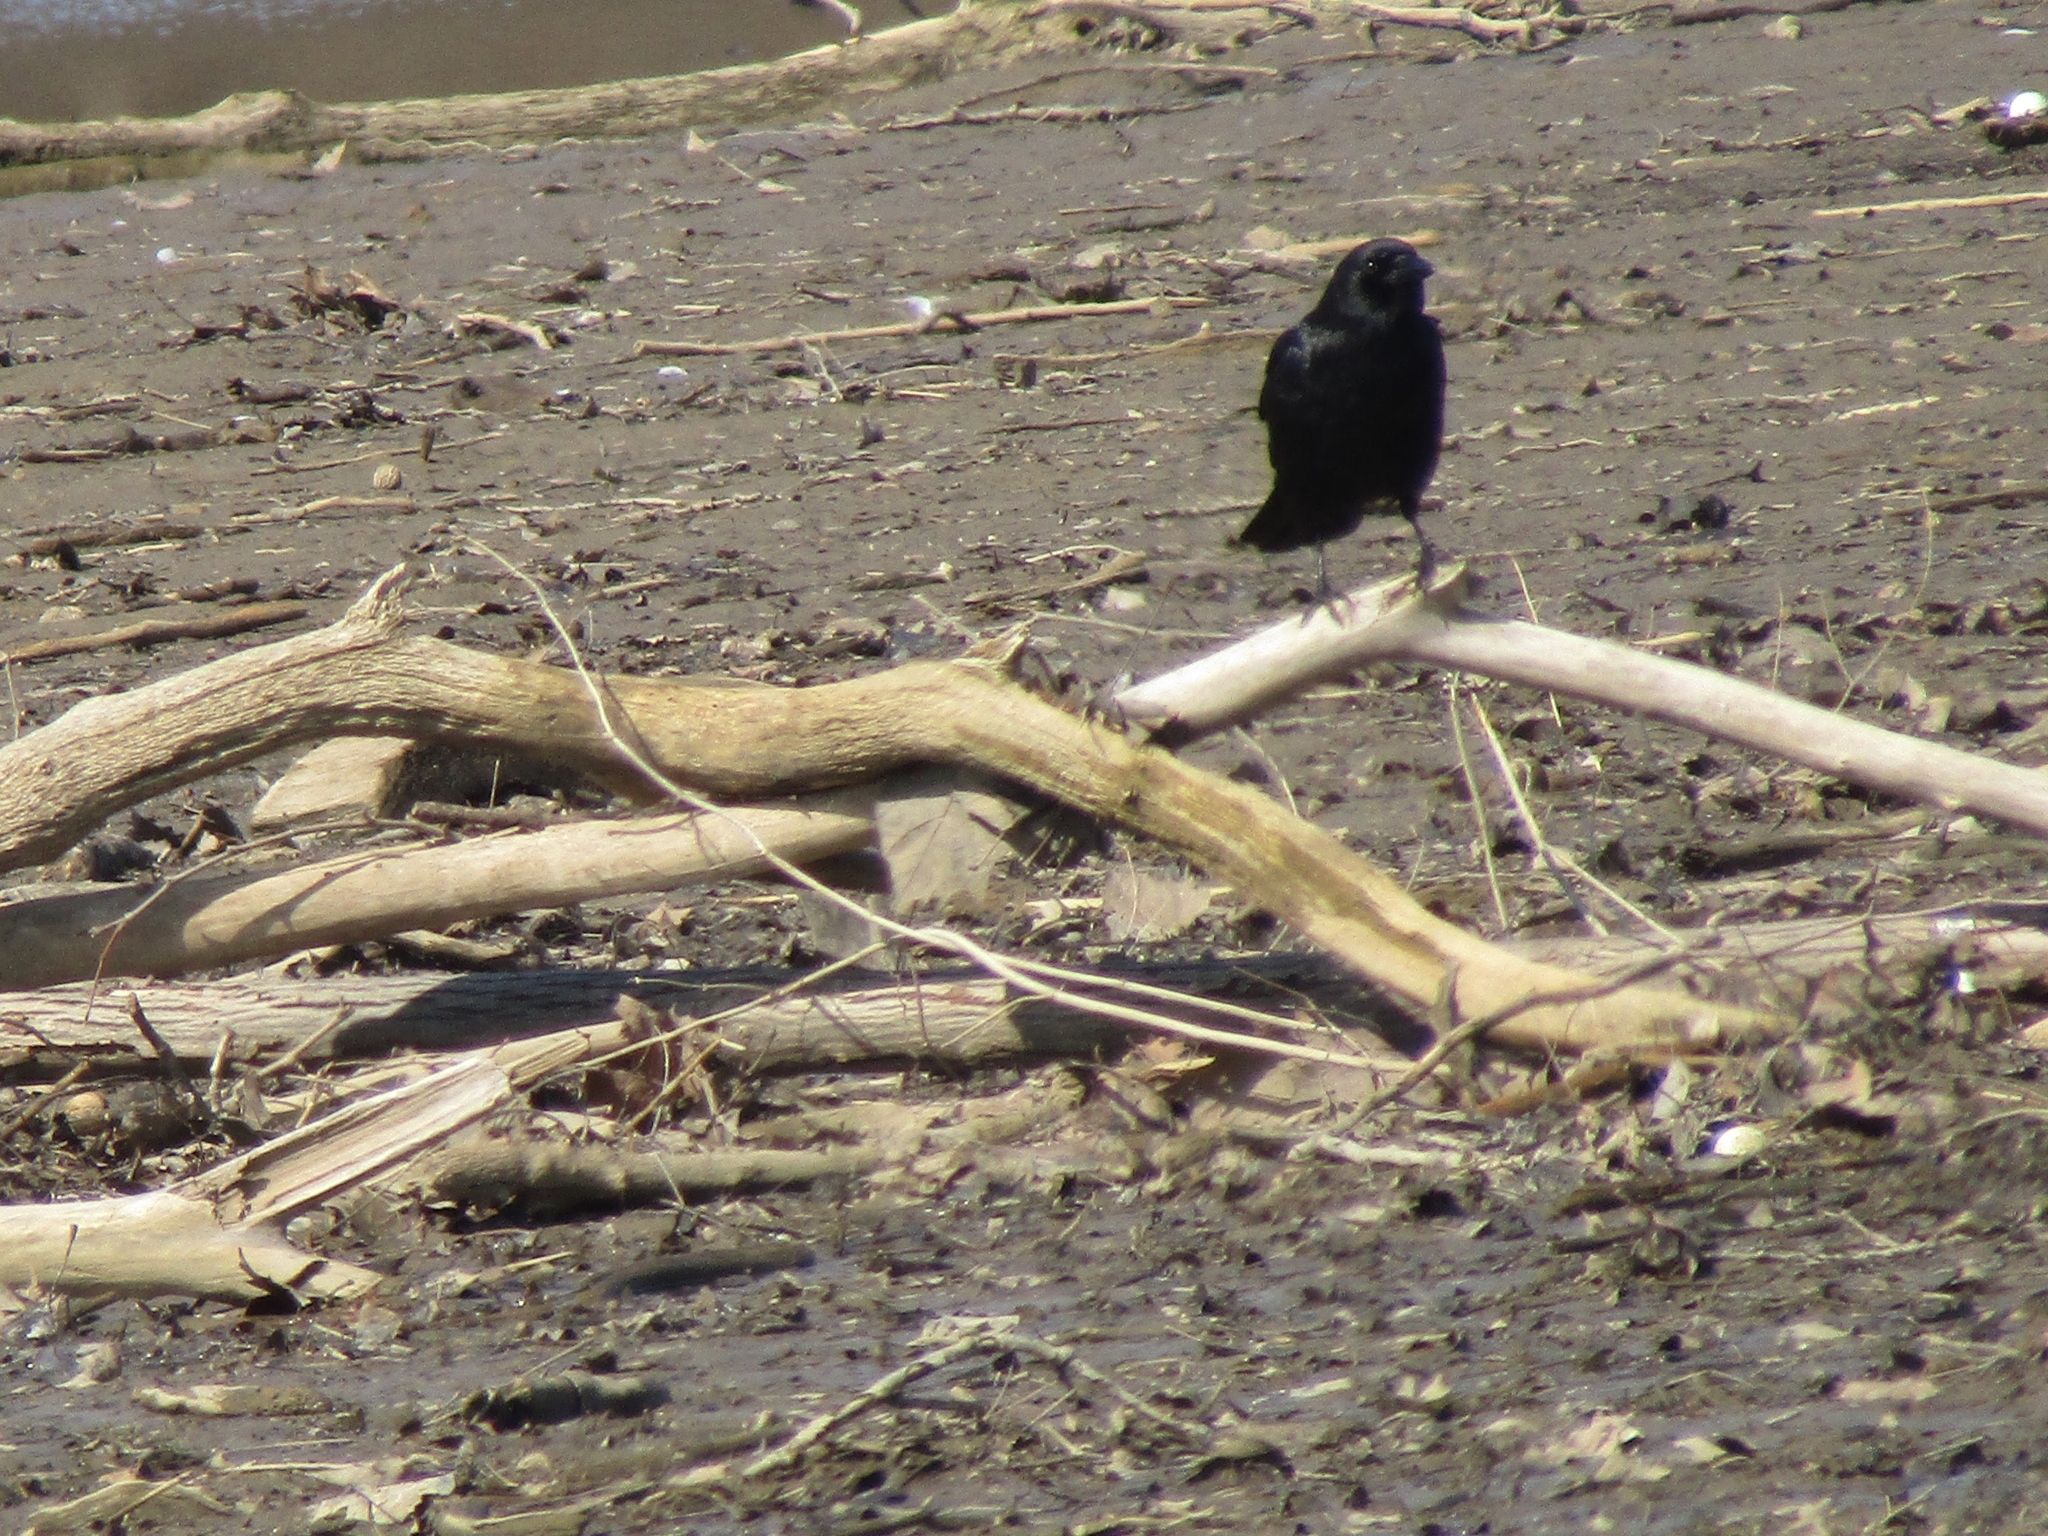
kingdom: Animalia
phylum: Chordata
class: Aves
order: Passeriformes
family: Corvidae
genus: Corvus
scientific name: Corvus brachyrhynchos
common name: American crow
